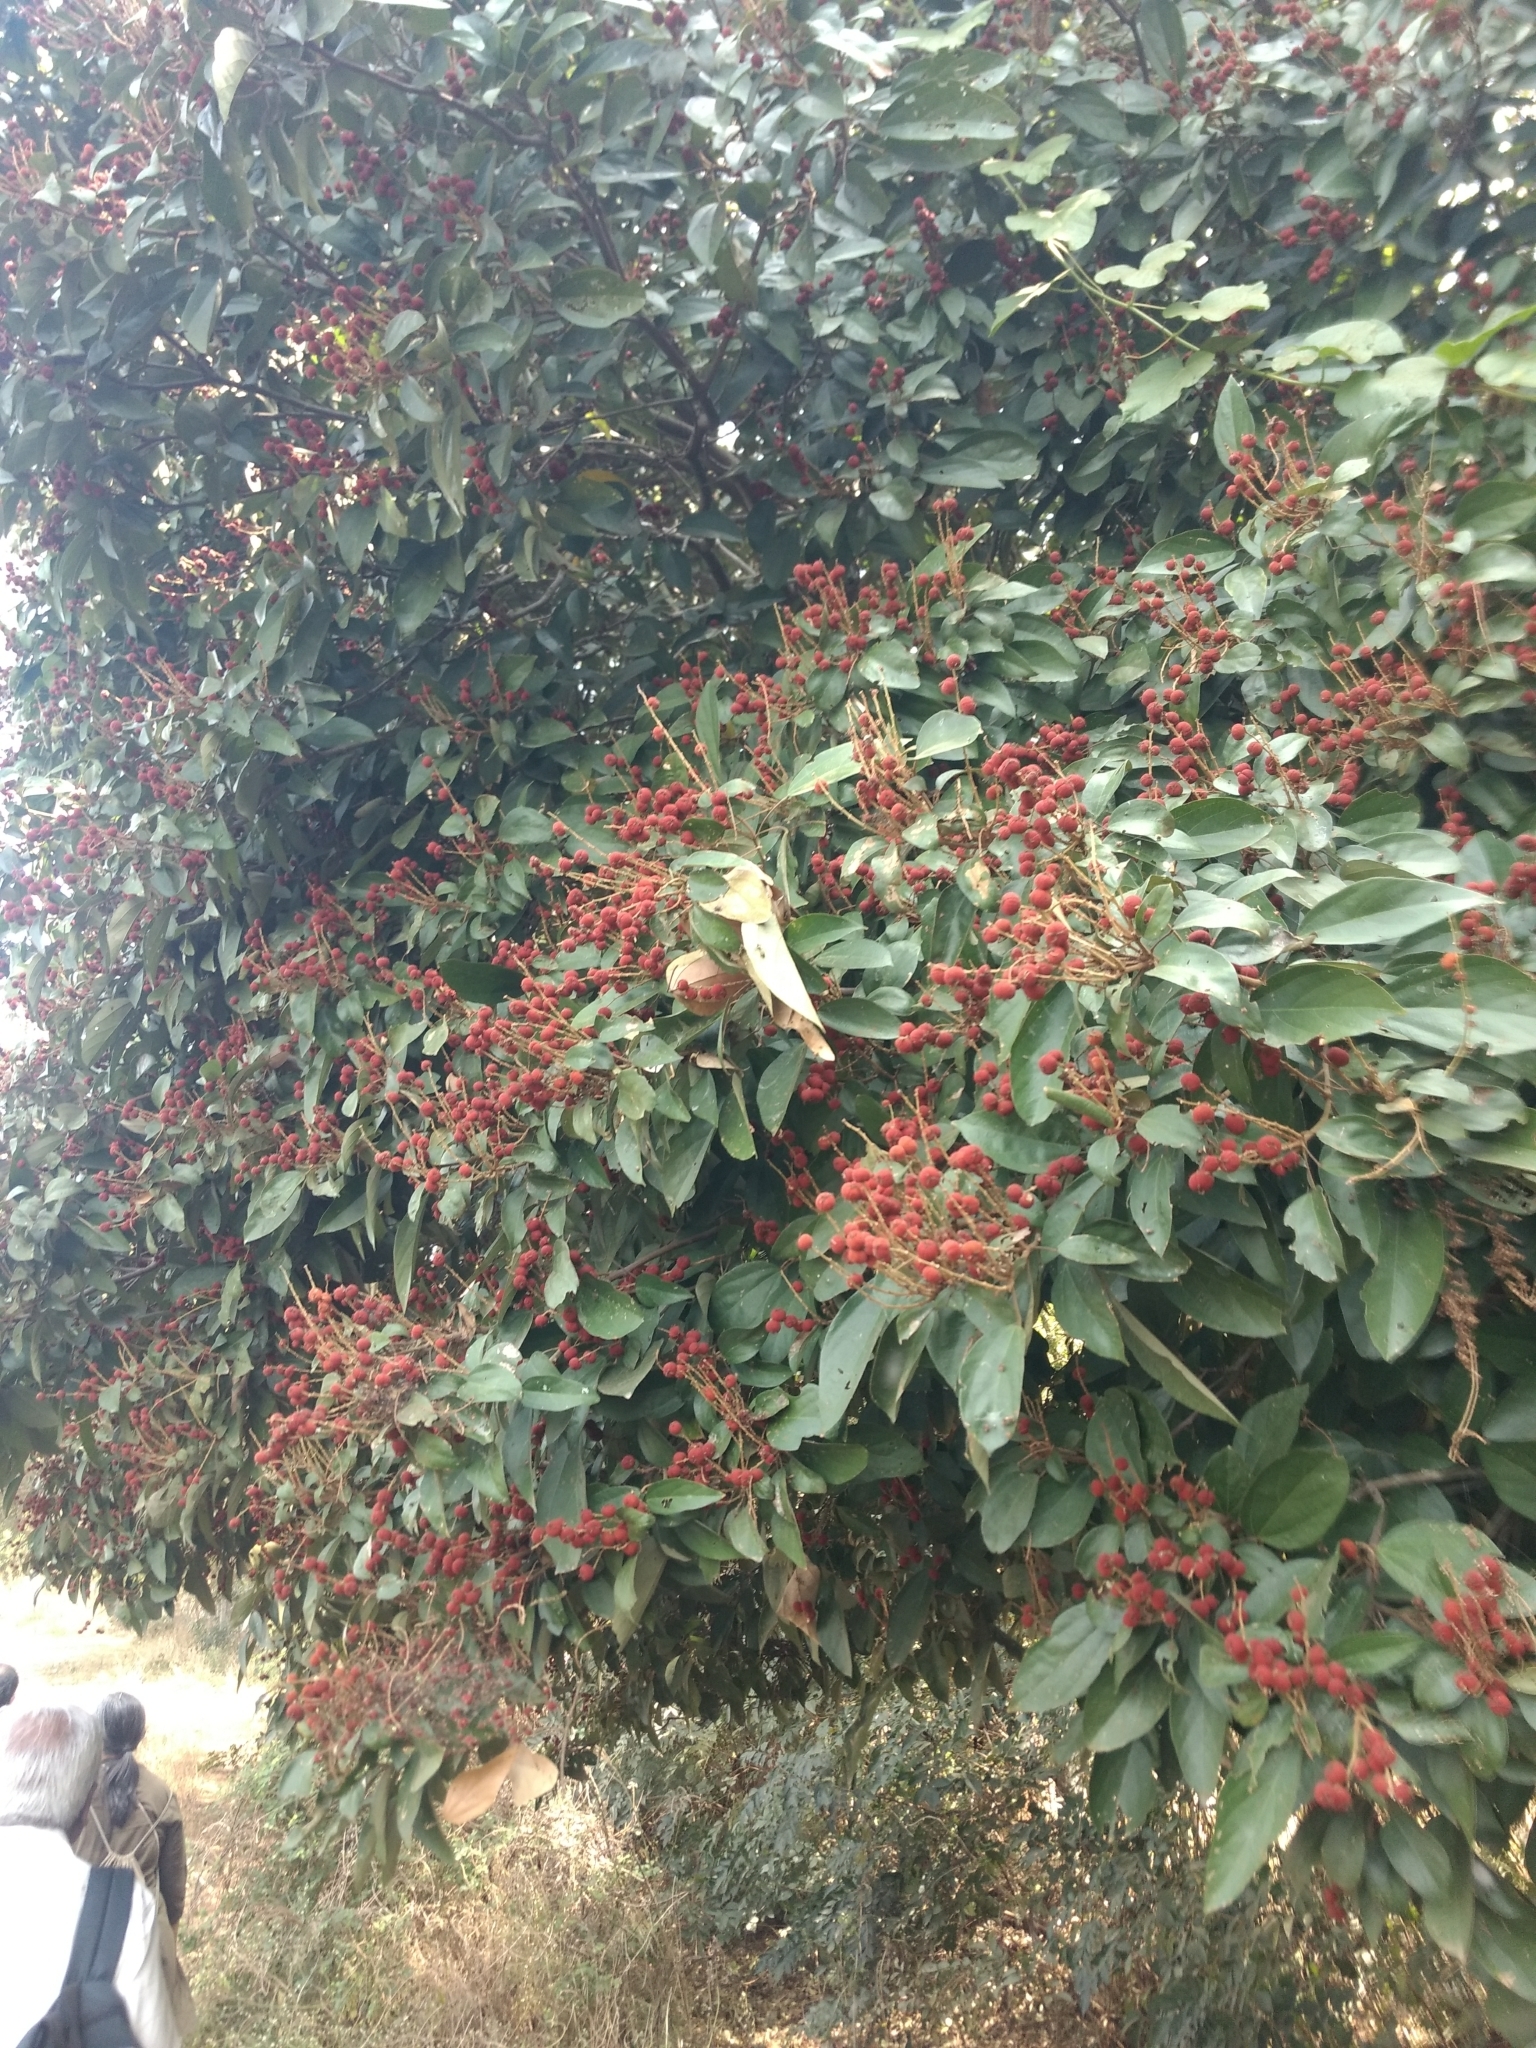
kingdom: Plantae
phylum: Tracheophyta
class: Magnoliopsida
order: Malpighiales
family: Euphorbiaceae
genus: Mallotus
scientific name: Mallotus philippensis
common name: Kamala tree
